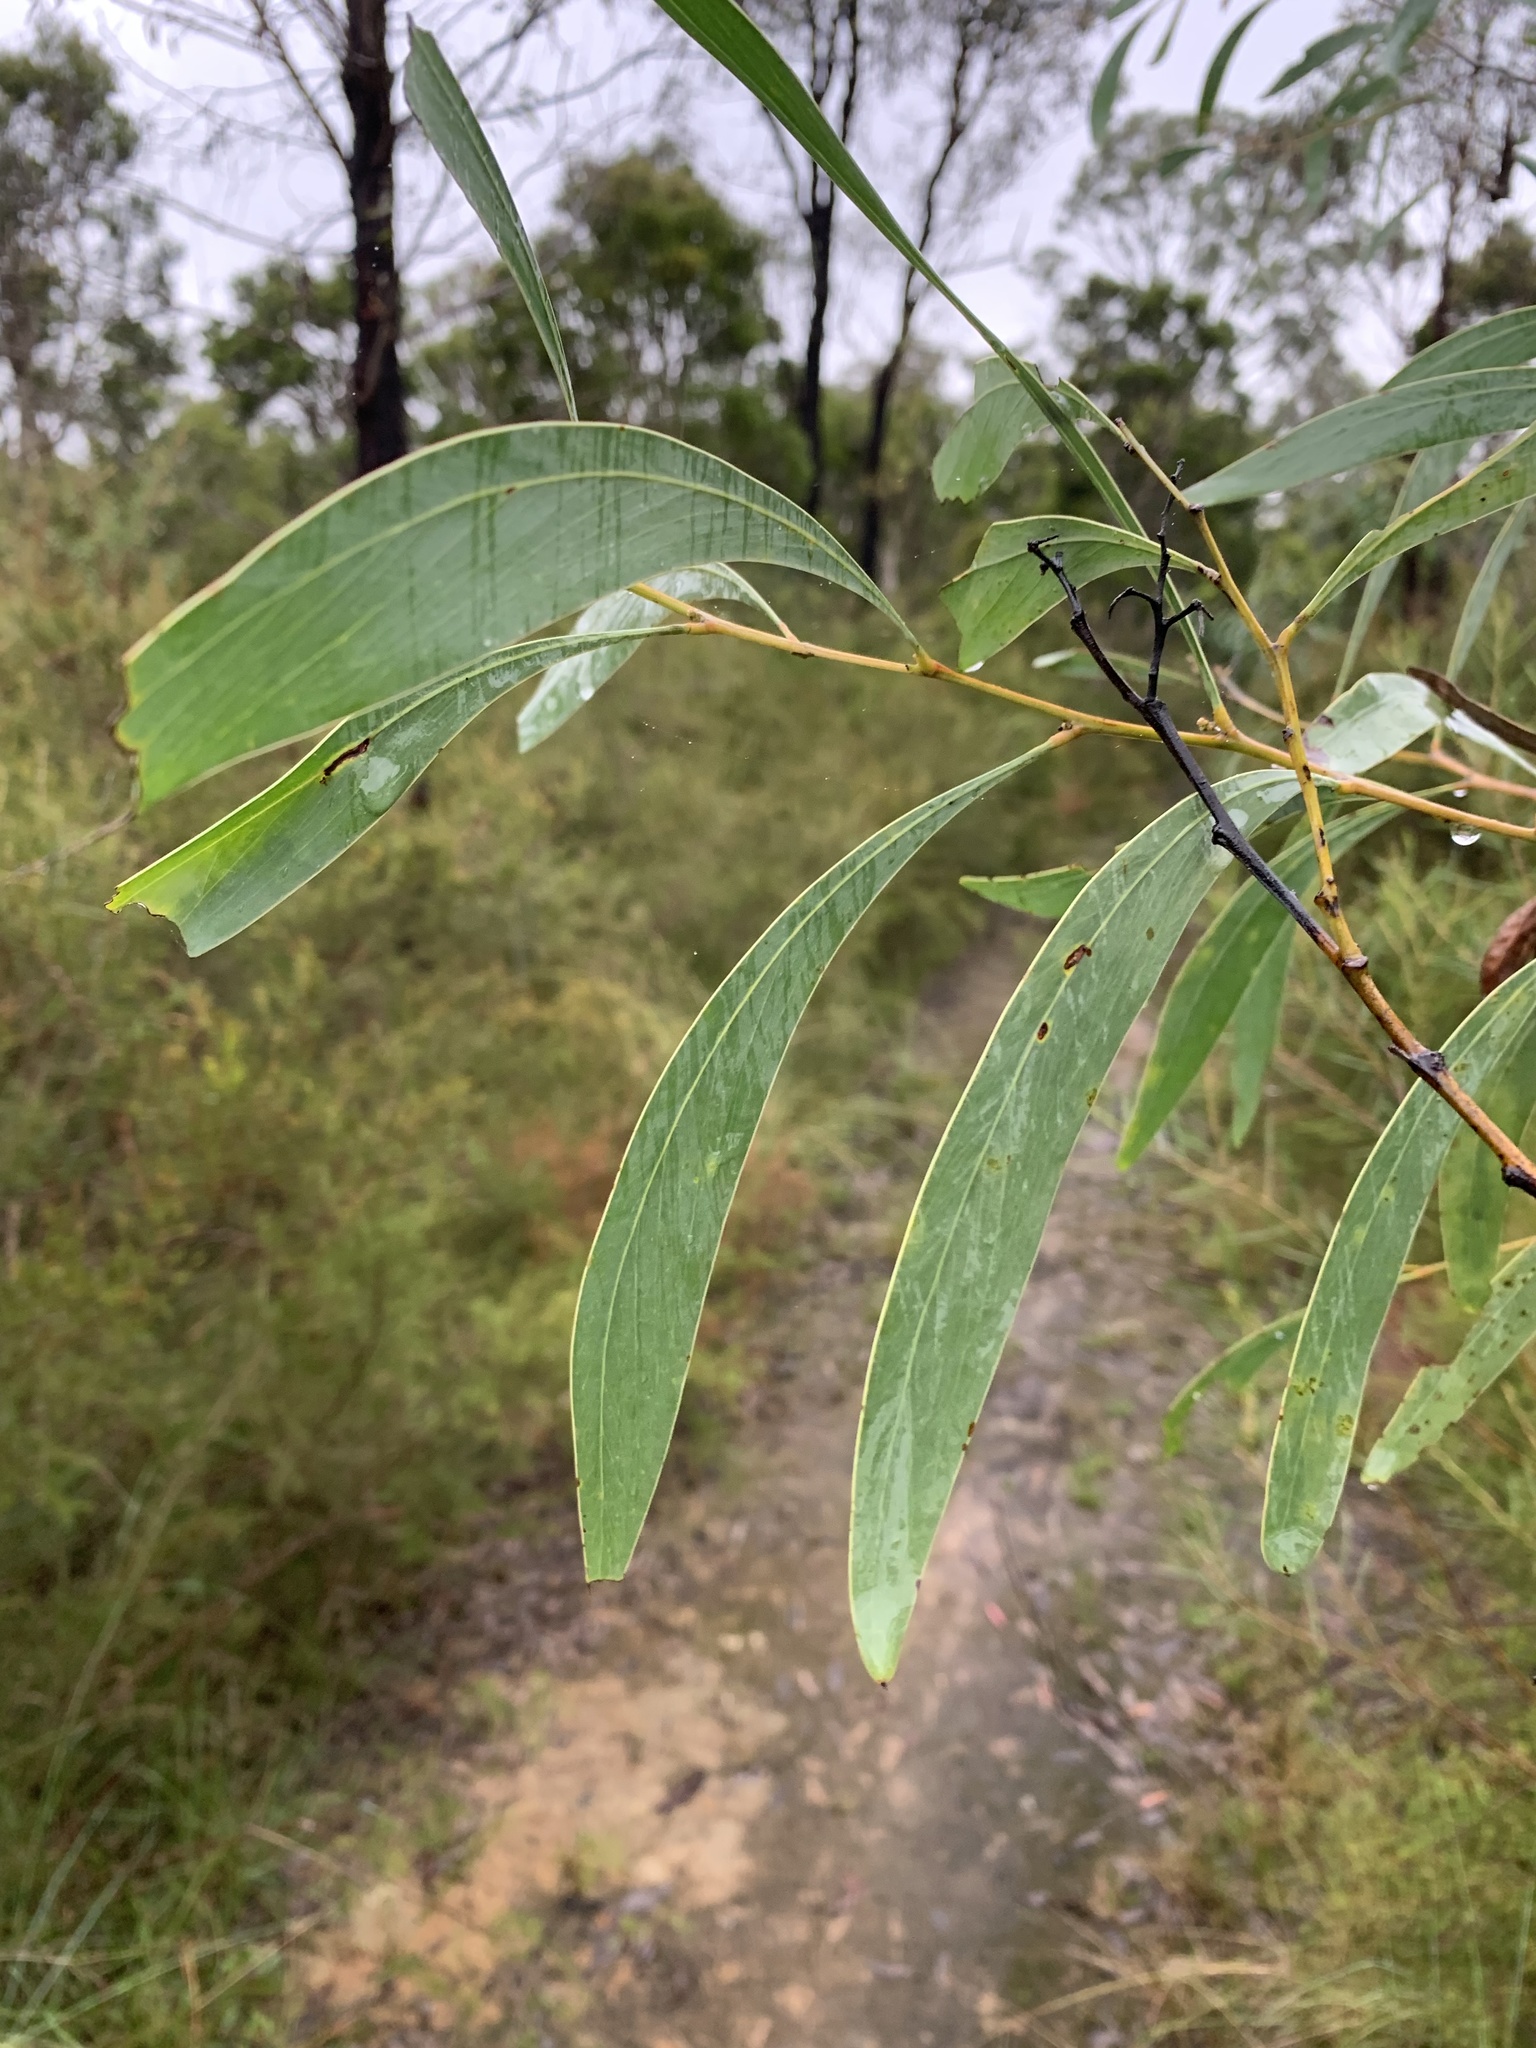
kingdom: Plantae
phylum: Tracheophyta
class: Magnoliopsida
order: Fabales
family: Fabaceae
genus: Acacia
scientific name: Acacia falcata
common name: Burra acacia
